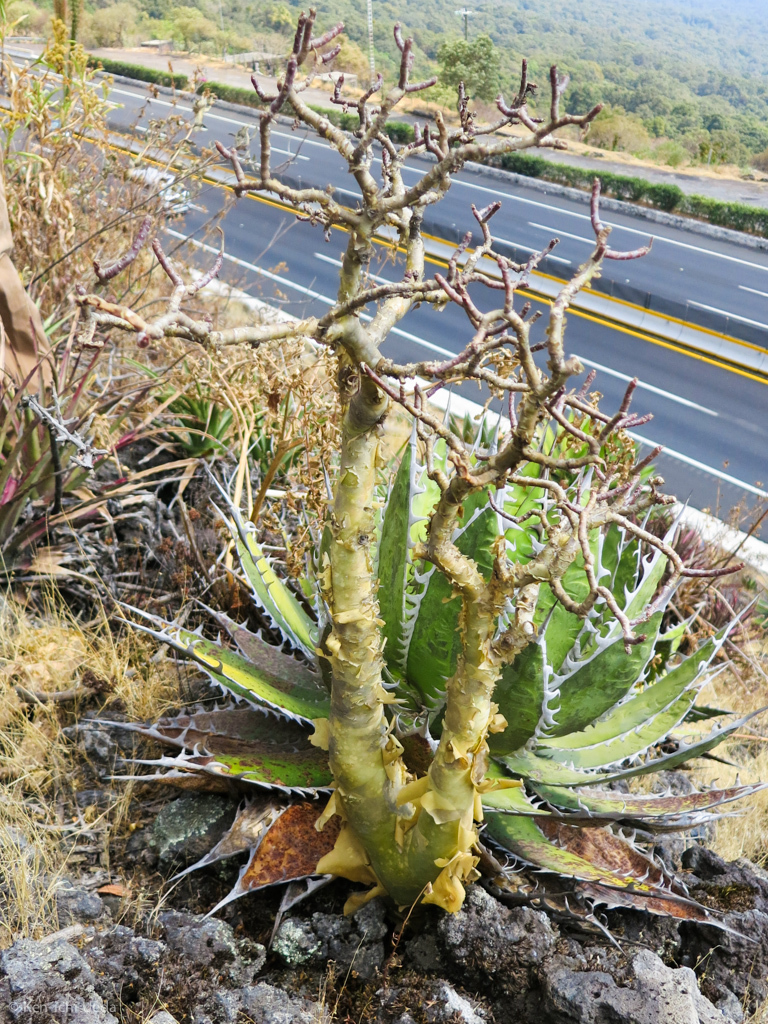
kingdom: Plantae
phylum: Tracheophyta
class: Magnoliopsida
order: Saxifragales
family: Crassulaceae
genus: Sedum
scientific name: Sedum oxypetalum
